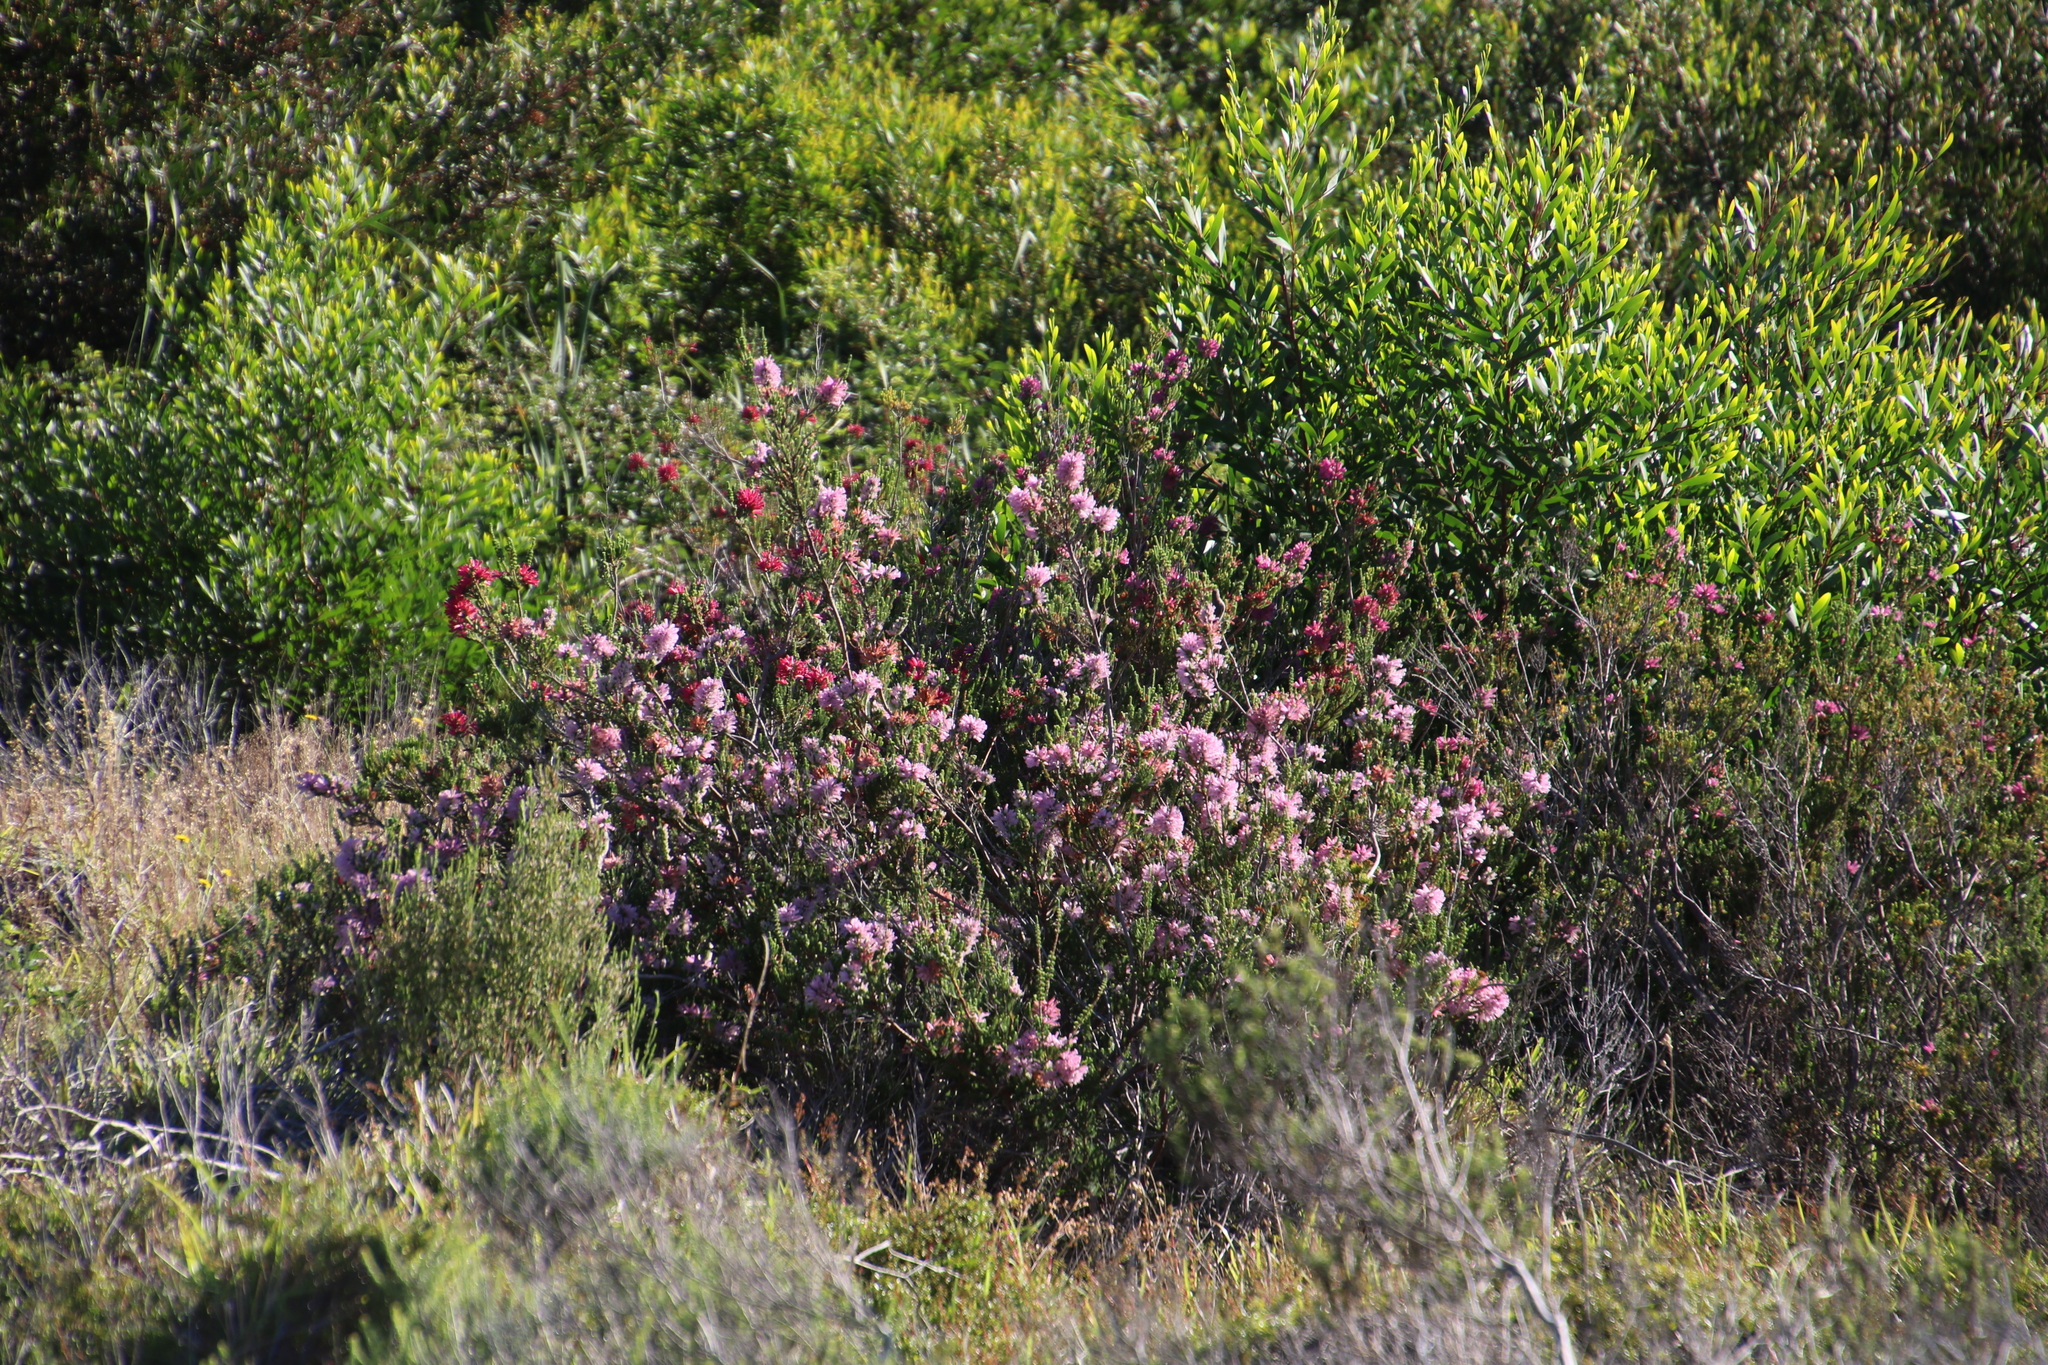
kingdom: Plantae
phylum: Tracheophyta
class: Magnoliopsida
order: Ericales
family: Ericaceae
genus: Erica
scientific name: Erica verticillata
